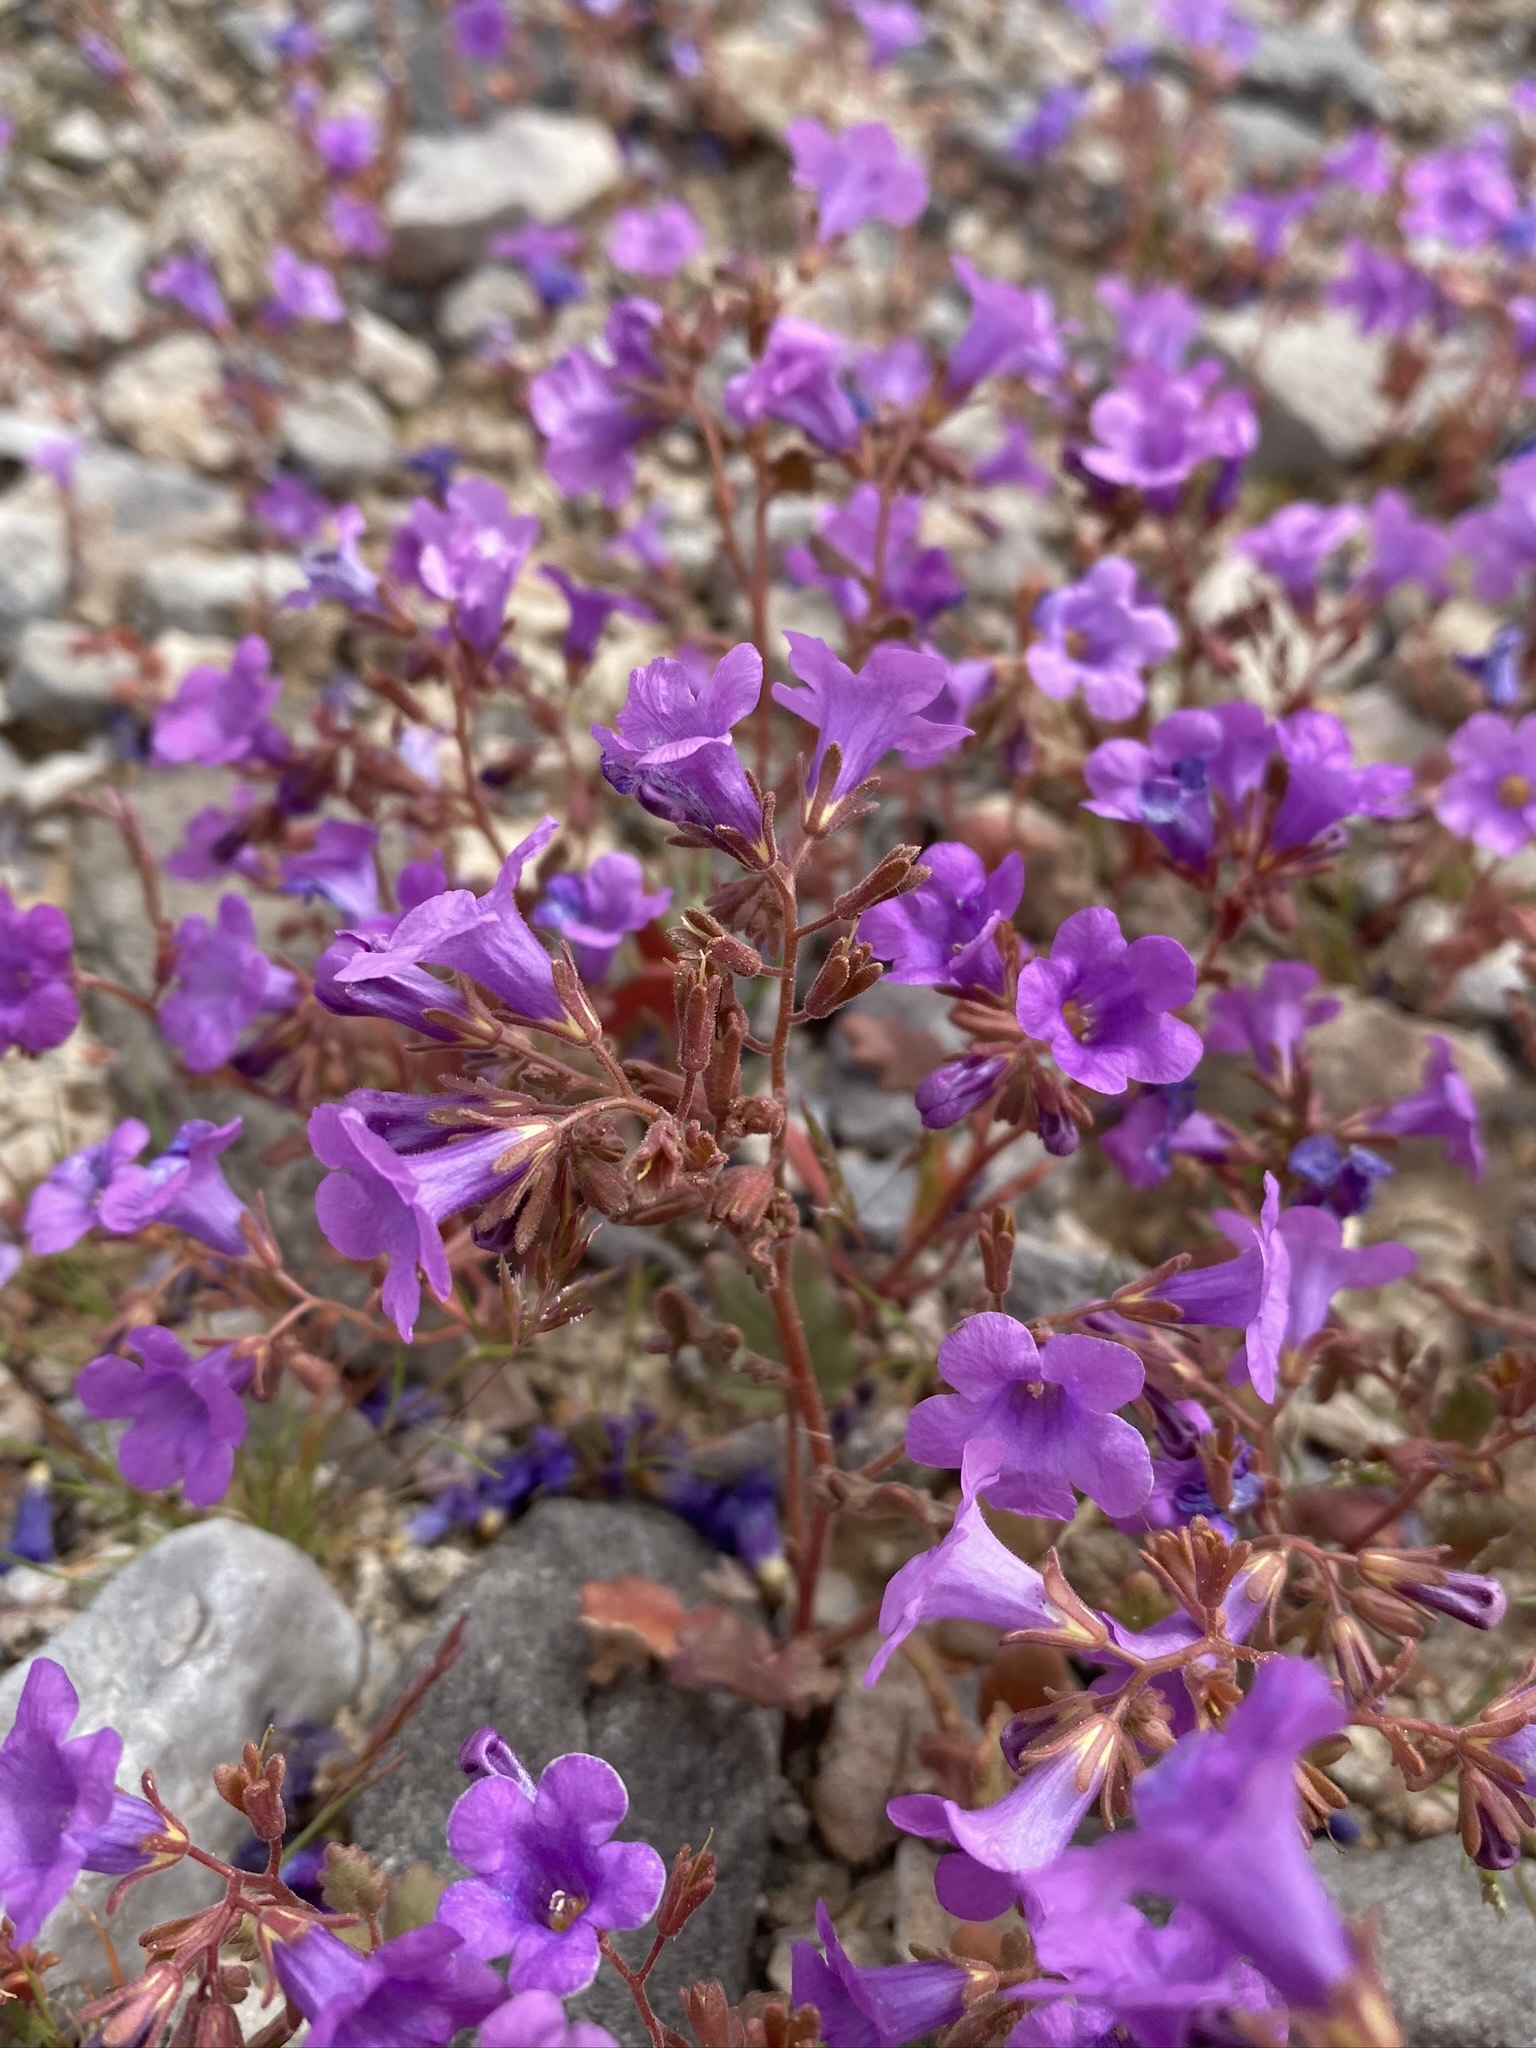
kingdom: Plantae
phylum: Tracheophyta
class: Magnoliopsida
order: Boraginales
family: Hydrophyllaceae
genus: Phacelia
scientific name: Phacelia pulchella
